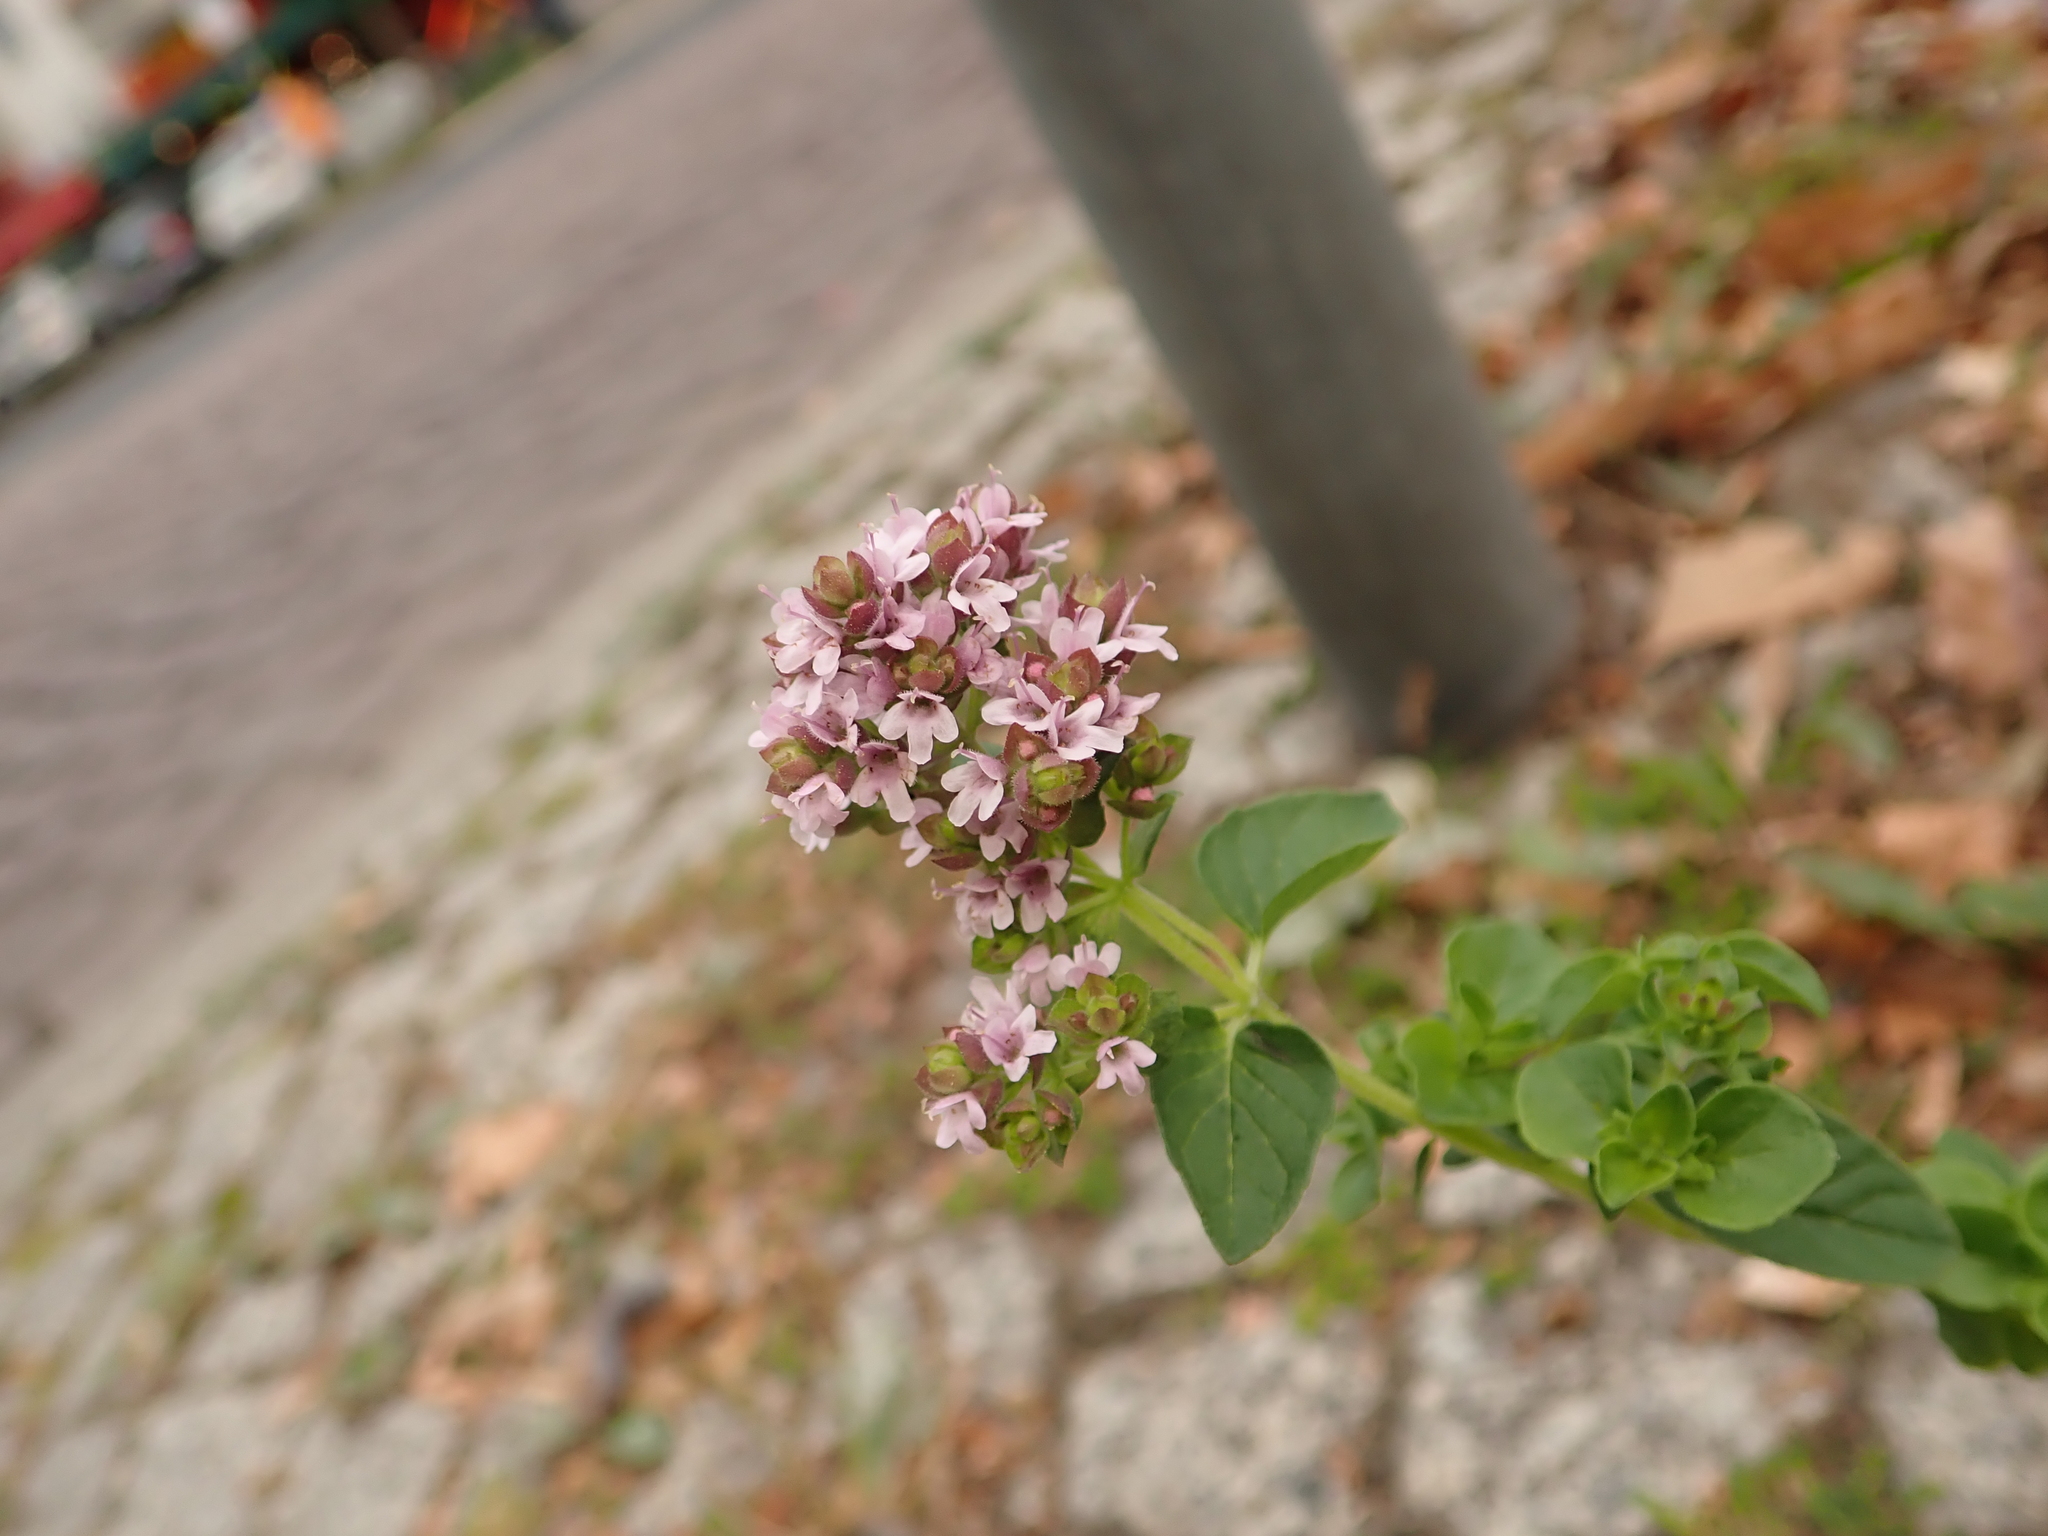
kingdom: Plantae
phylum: Tracheophyta
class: Magnoliopsida
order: Lamiales
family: Lamiaceae
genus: Origanum
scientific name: Origanum vulgare
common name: Wild marjoram
